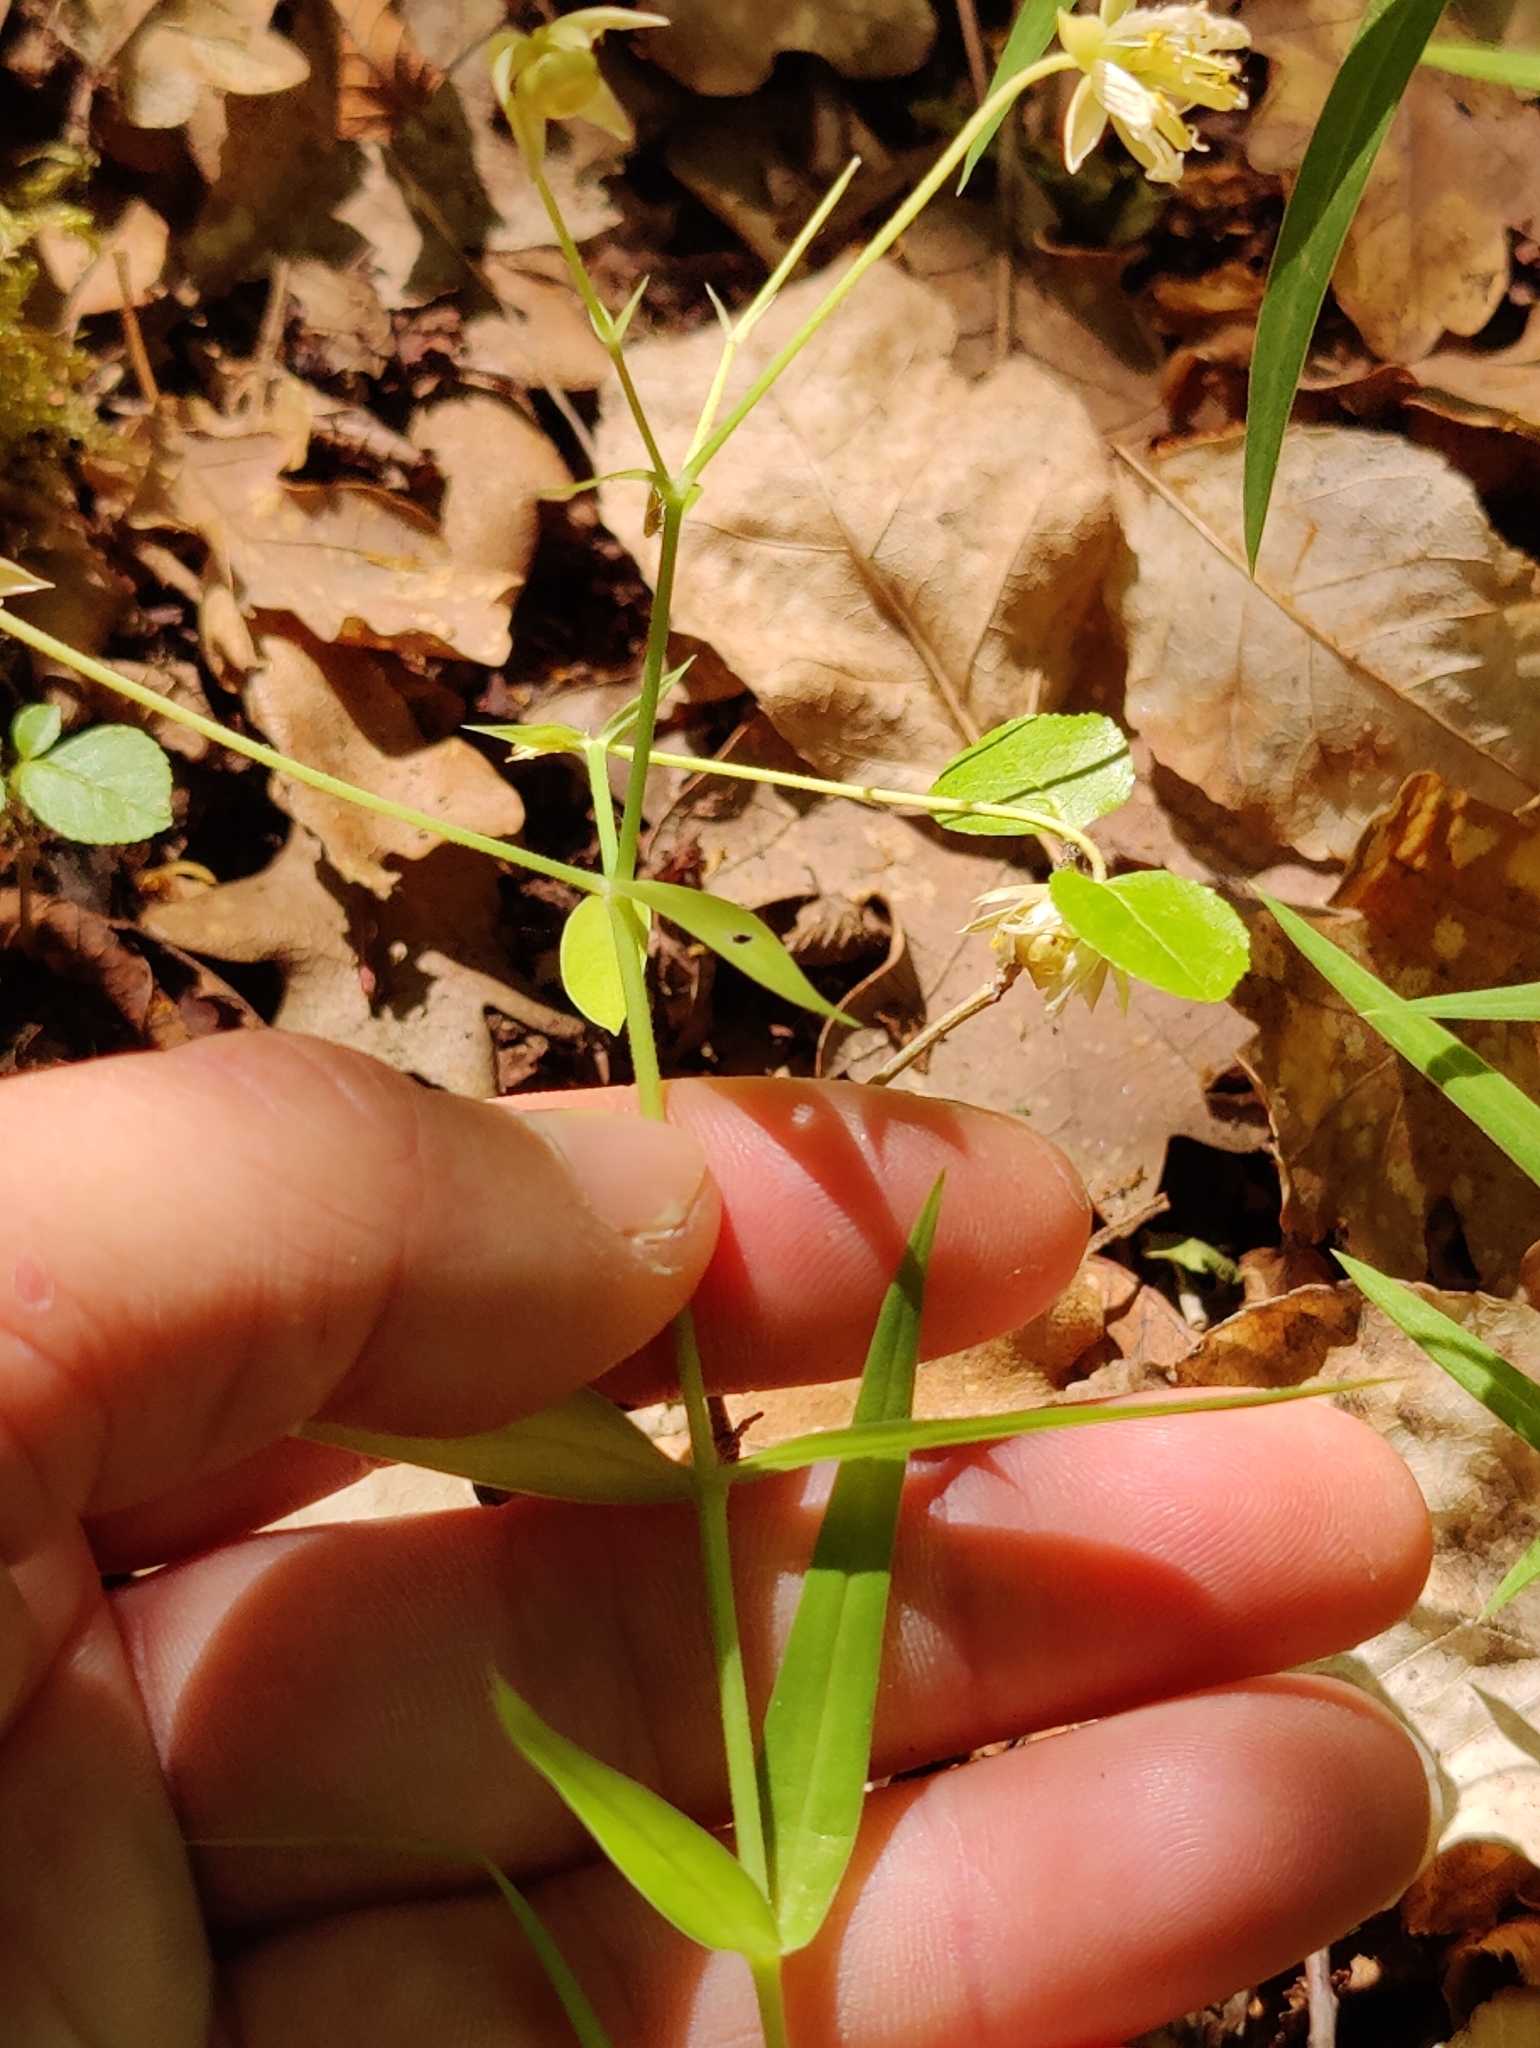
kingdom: Plantae
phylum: Tracheophyta
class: Magnoliopsida
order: Caryophyllales
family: Caryophyllaceae
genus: Rabelera
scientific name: Rabelera holostea
